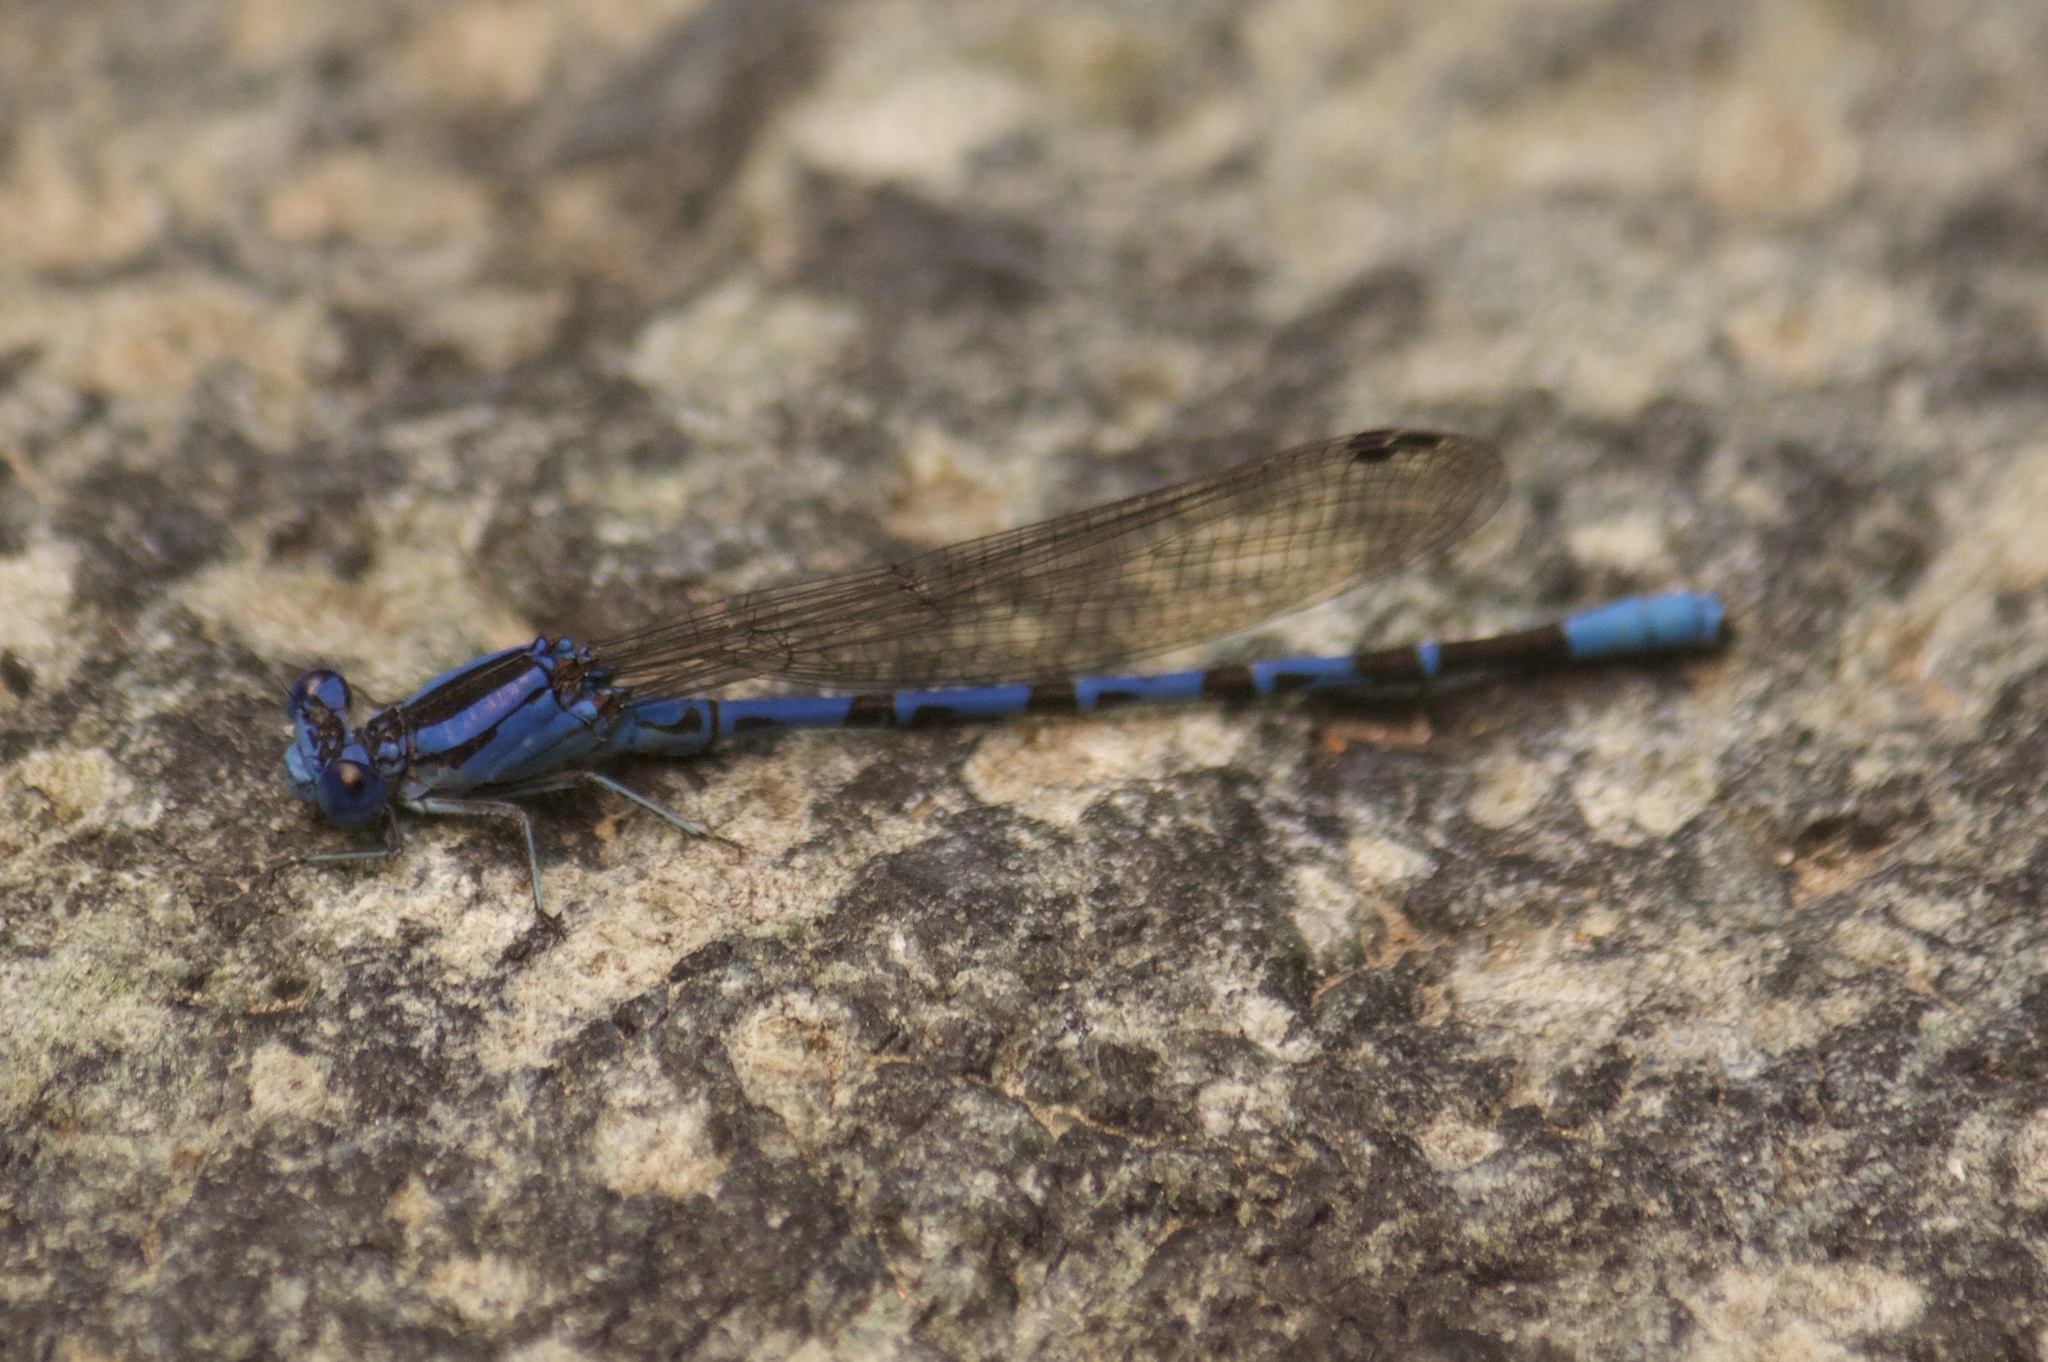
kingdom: Animalia
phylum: Arthropoda
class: Insecta
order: Odonata
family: Coenagrionidae
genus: Argia
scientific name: Argia vivida
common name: Vivid dancer
